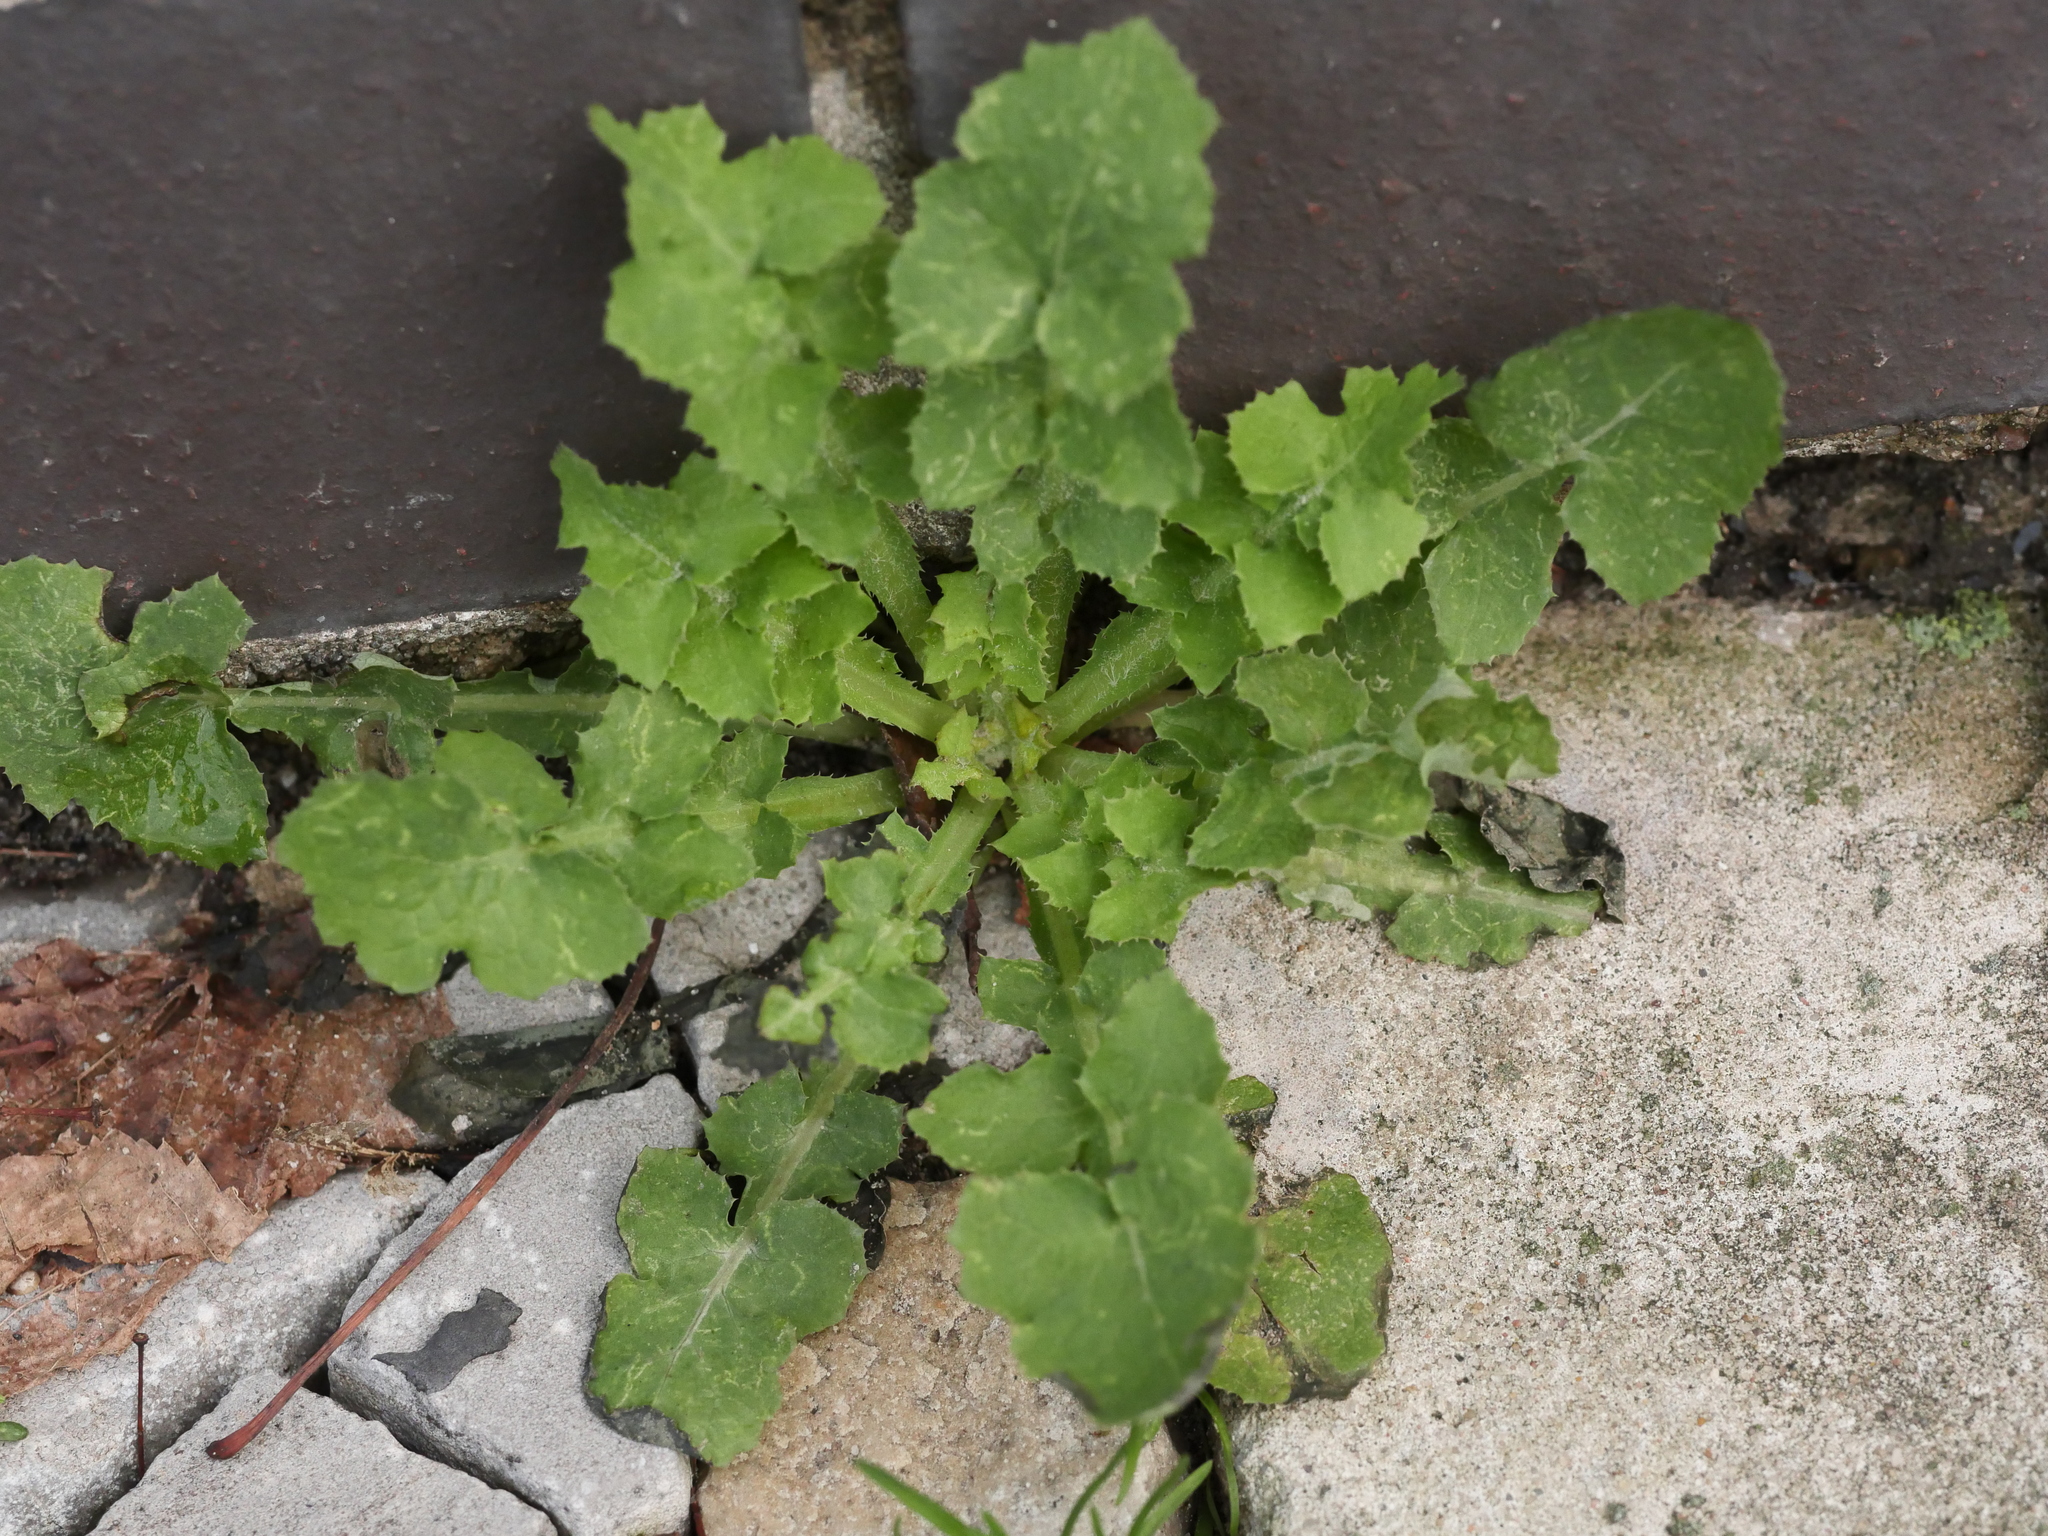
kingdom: Plantae
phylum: Tracheophyta
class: Magnoliopsida
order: Asterales
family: Asteraceae
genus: Sonchus
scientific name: Sonchus oleraceus
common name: Common sowthistle
